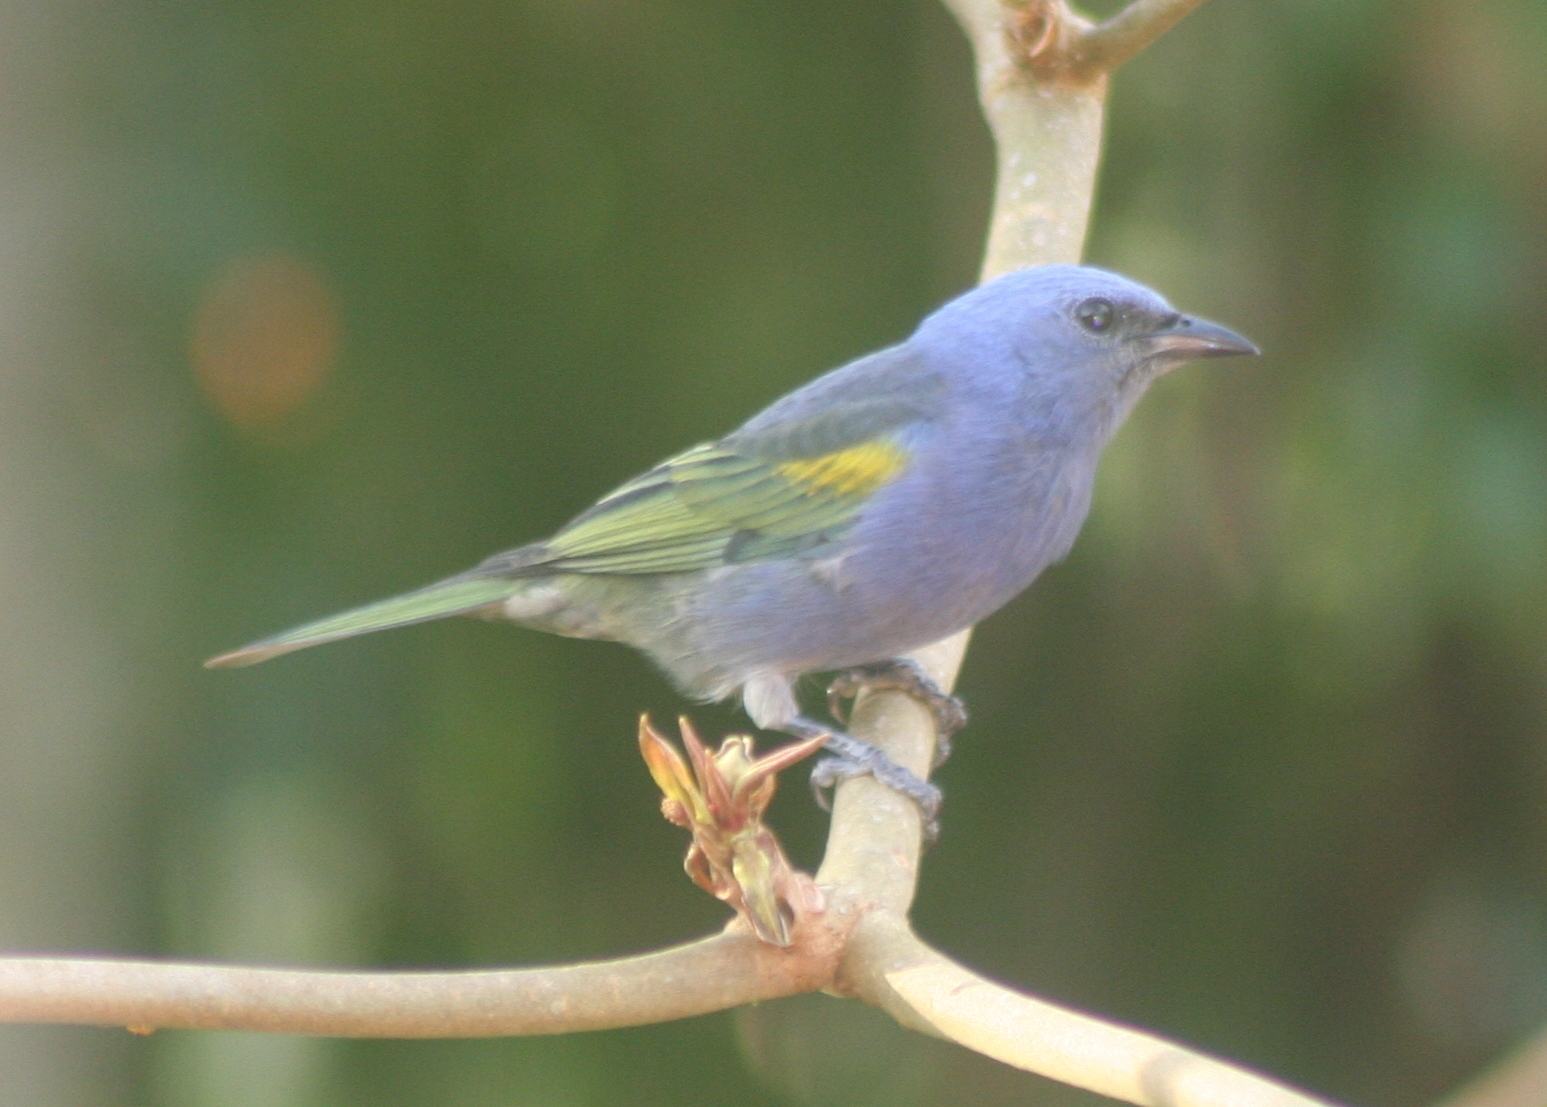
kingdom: Animalia
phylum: Chordata
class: Aves
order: Passeriformes
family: Thraupidae
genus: Thraupis
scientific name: Thraupis ornata
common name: Golden-chevroned tanager
